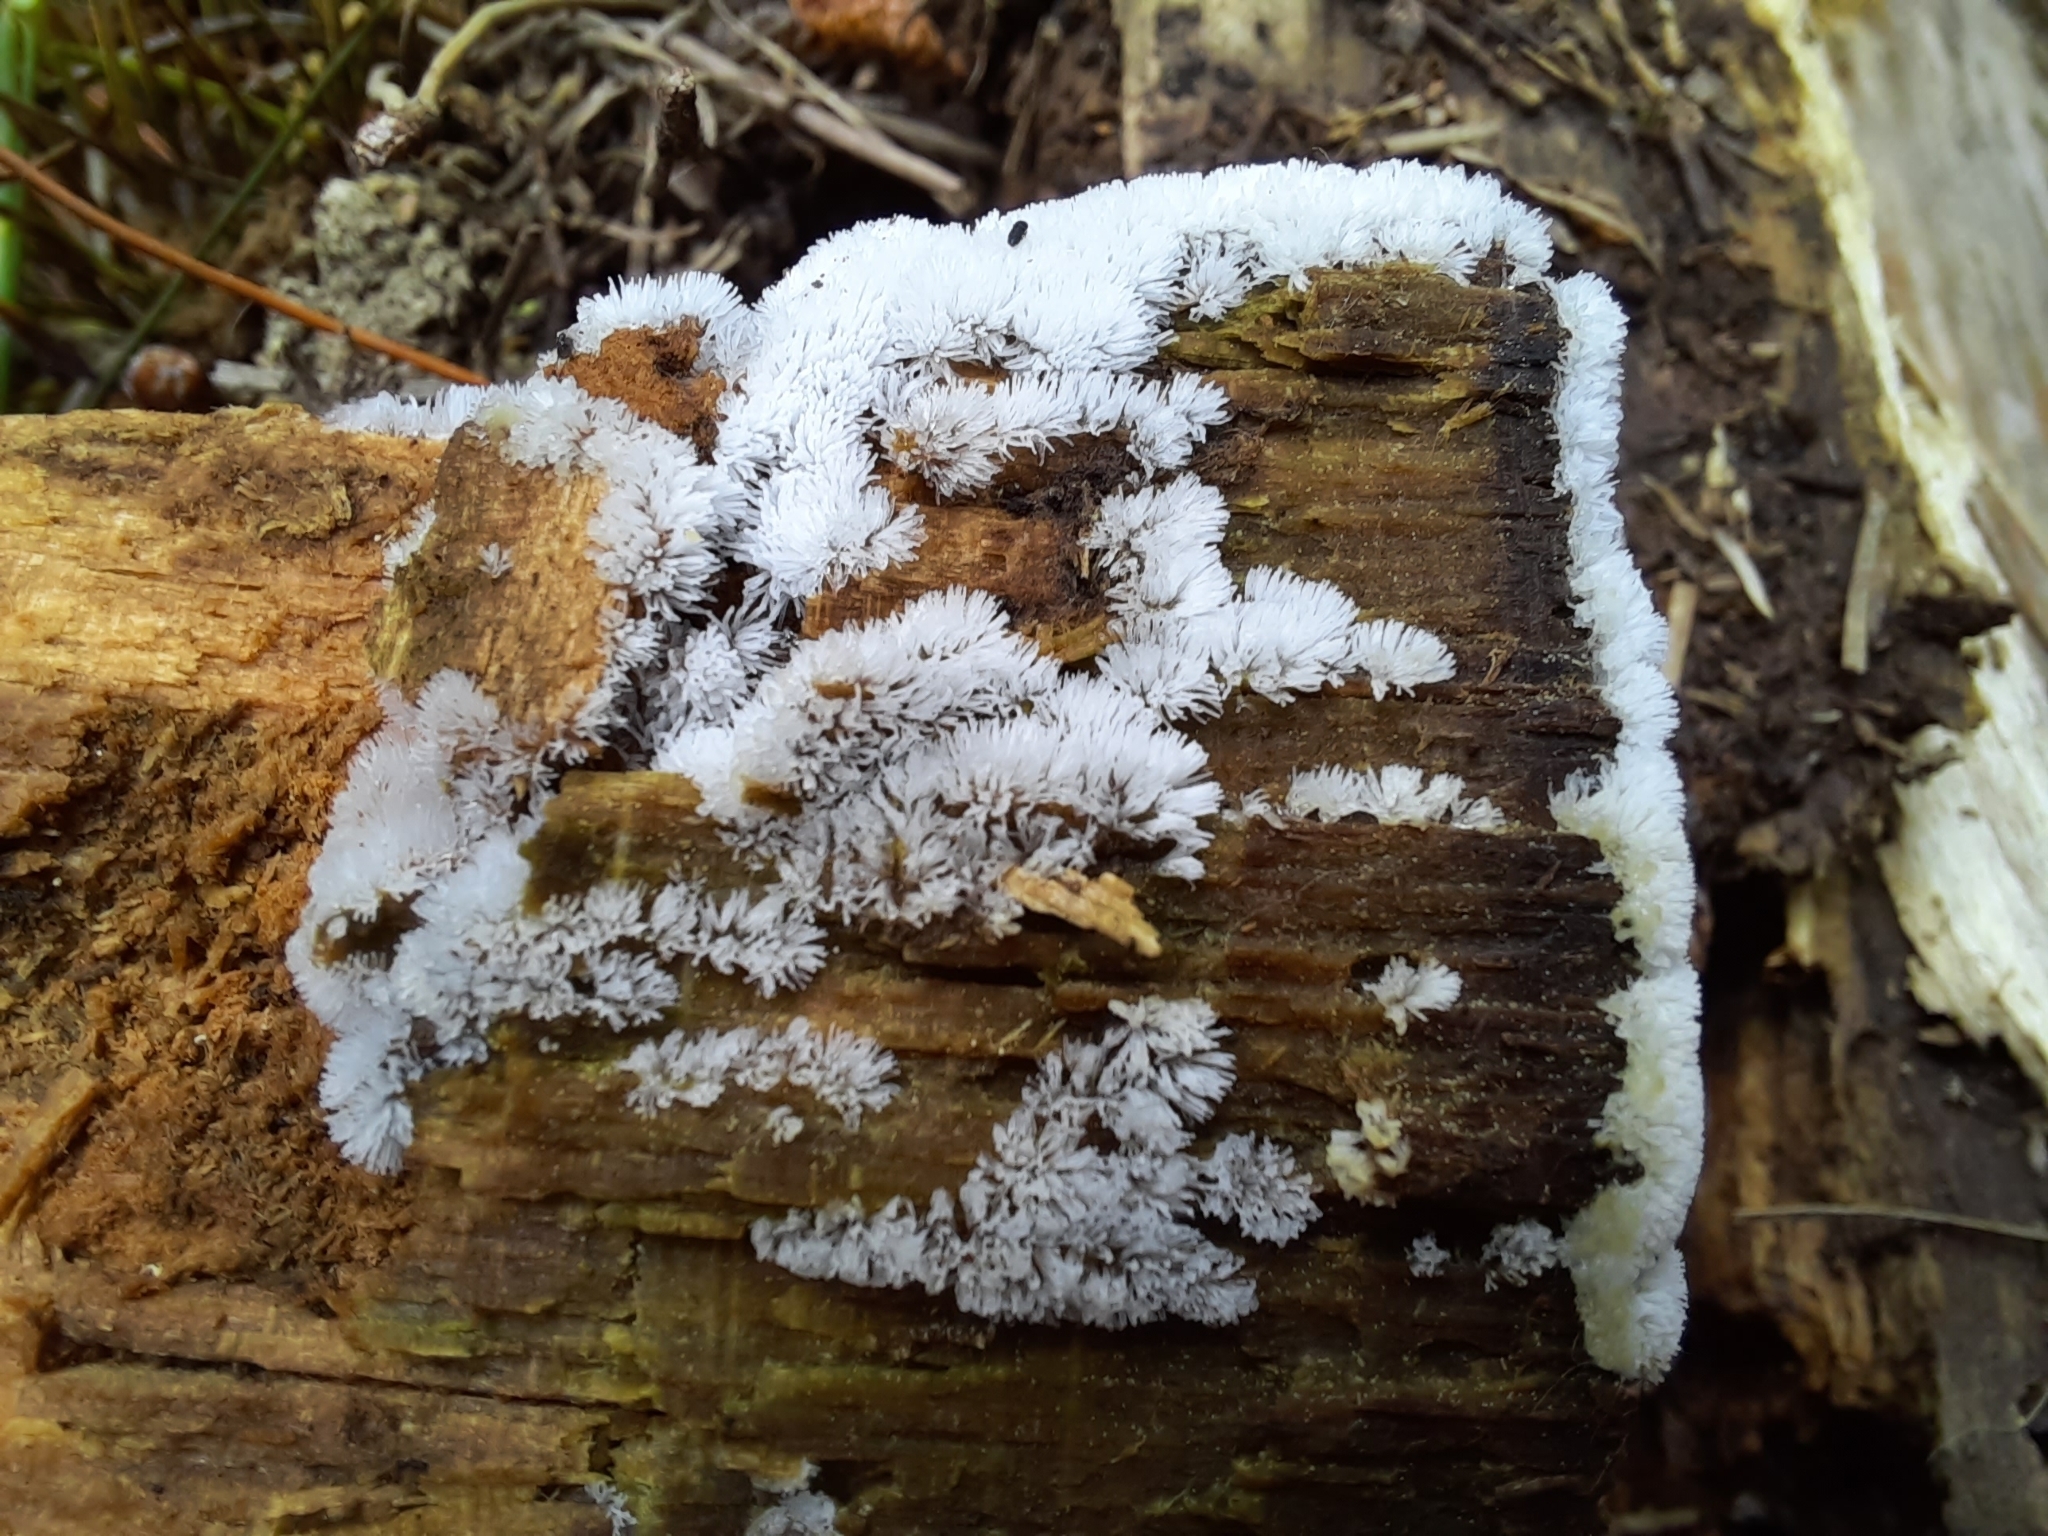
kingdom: Protozoa
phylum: Mycetozoa
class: Protosteliomycetes
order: Ceratiomyxales
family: Ceratiomyxaceae
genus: Ceratiomyxa
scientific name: Ceratiomyxa fruticulosa
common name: Honeycomb coral slime mold
